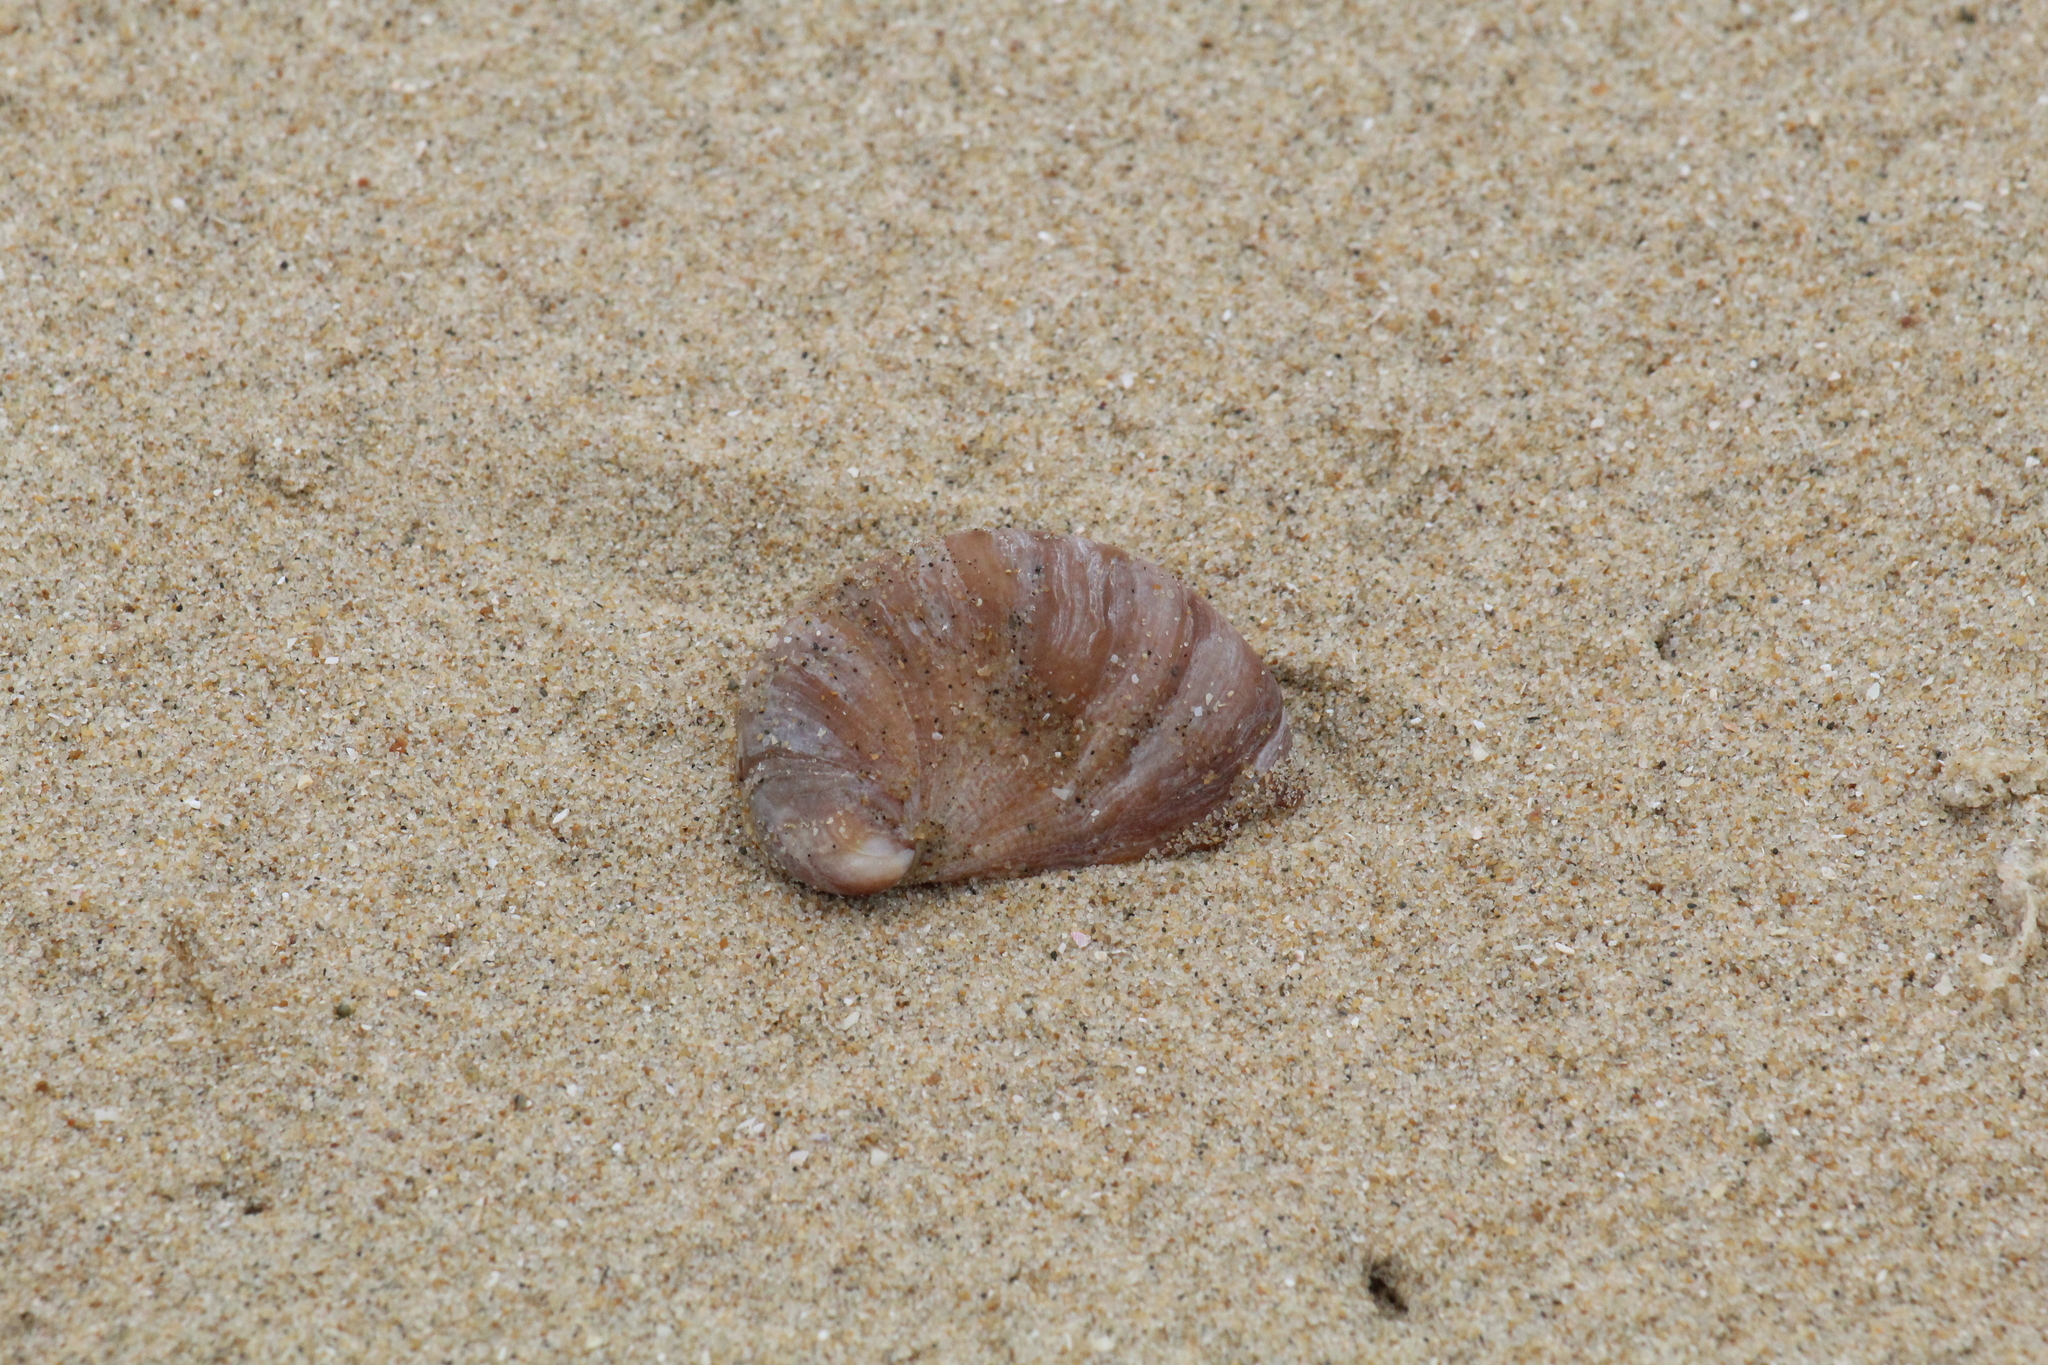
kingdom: Animalia
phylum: Mollusca
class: Gastropoda
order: Littorinimorpha
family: Calyptraeidae
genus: Crepidula
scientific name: Crepidula fornicata
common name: Slipper limpet
